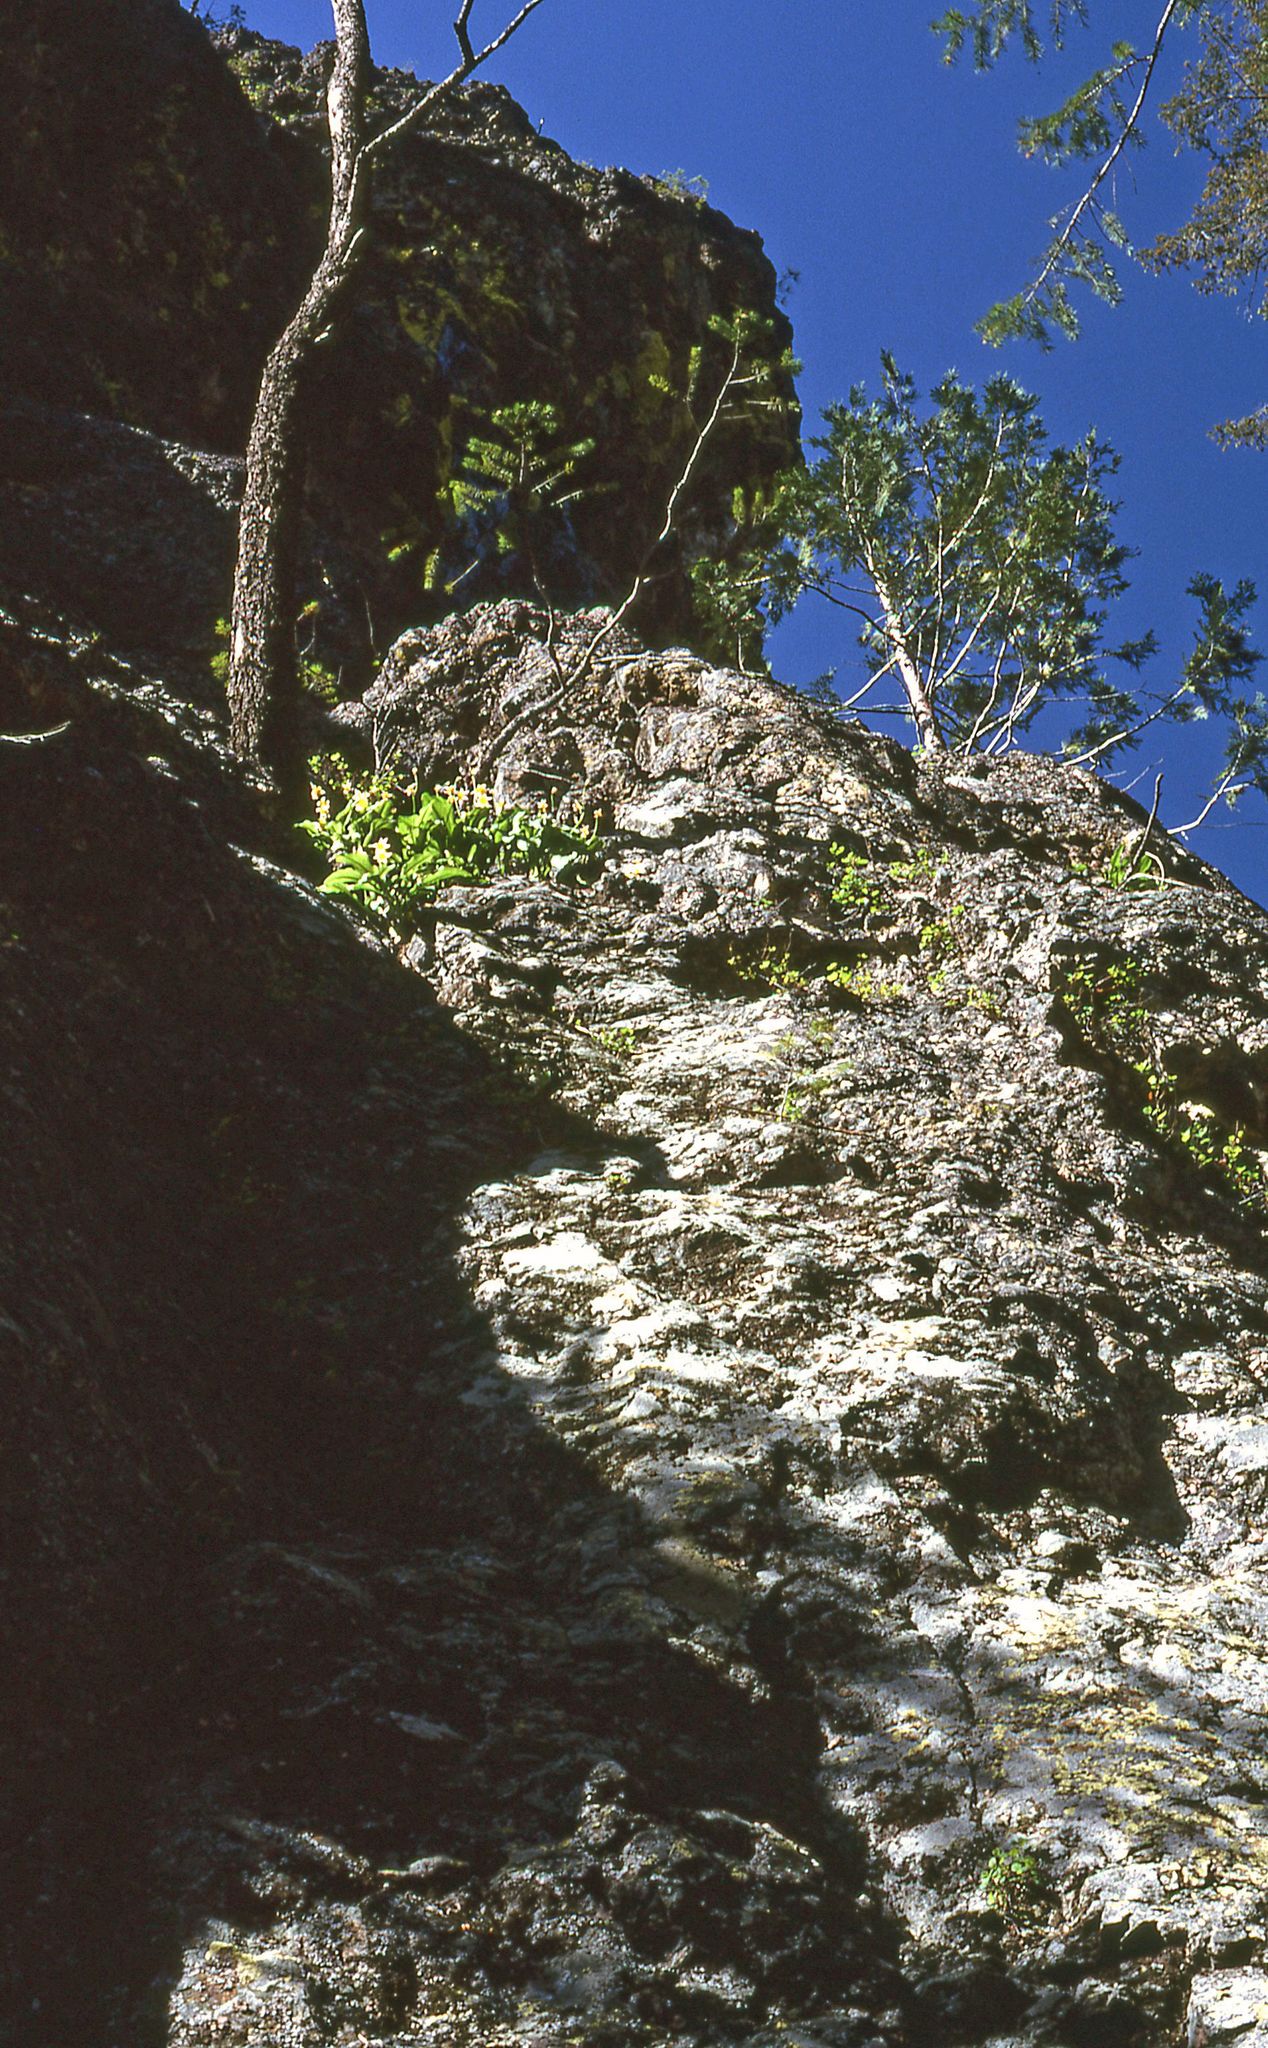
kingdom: Plantae
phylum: Tracheophyta
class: Liliopsida
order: Liliales
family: Liliaceae
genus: Erythronium
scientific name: Erythronium taylorii
